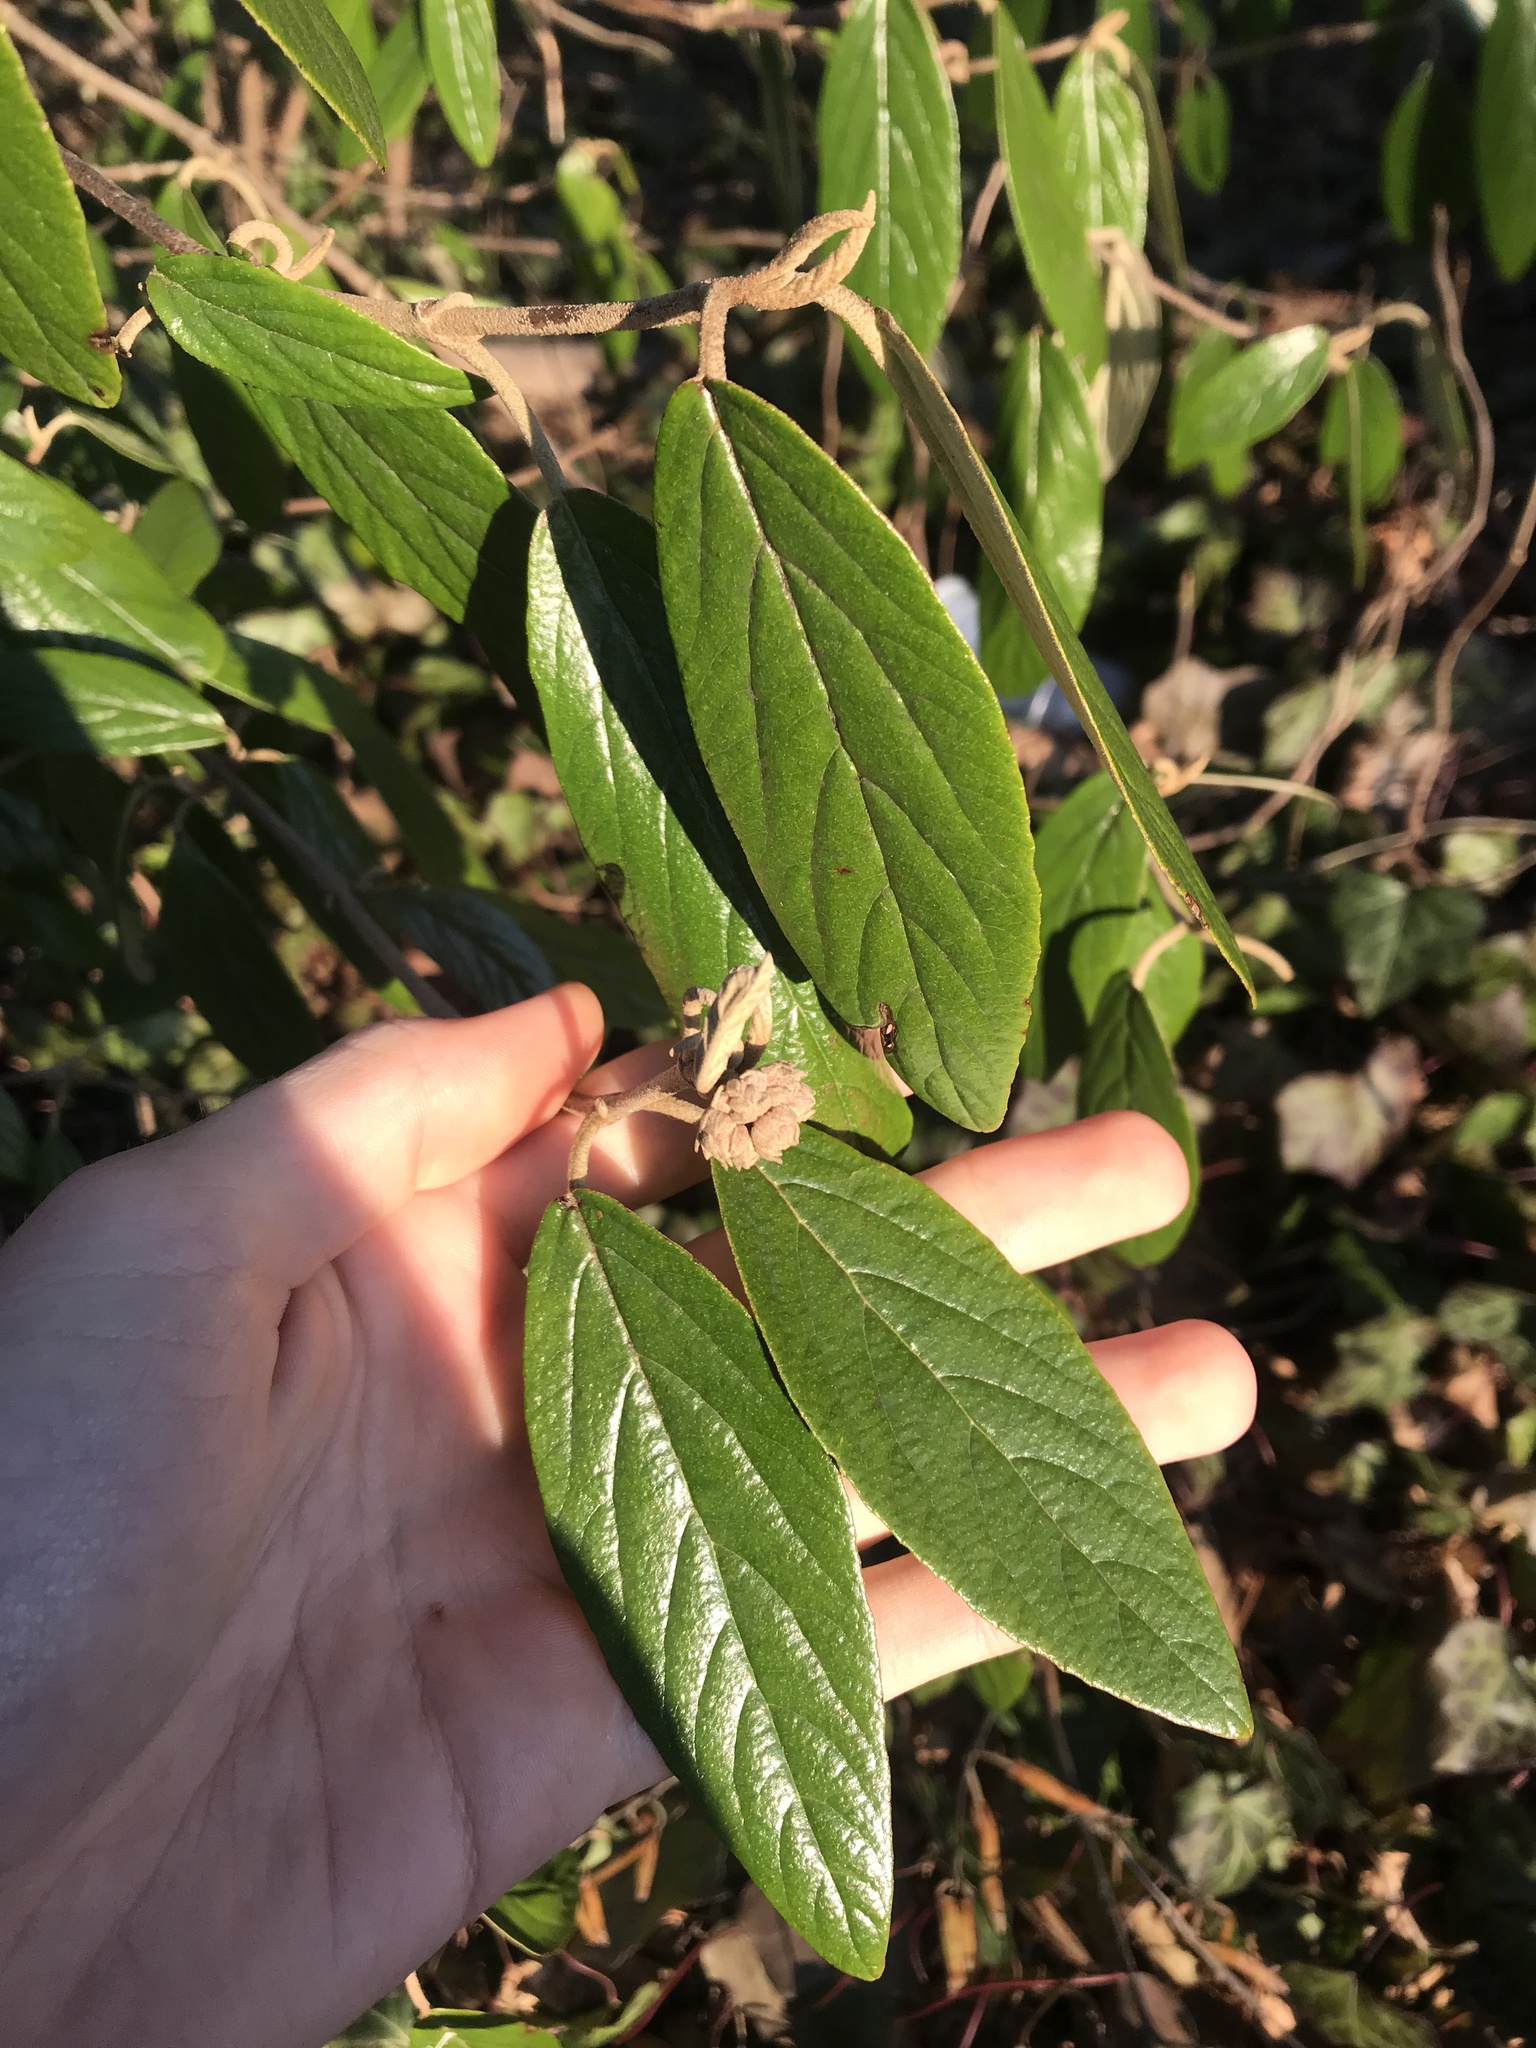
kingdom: Plantae
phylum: Tracheophyta
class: Magnoliopsida
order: Dipsacales
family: Viburnaceae
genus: Viburnum
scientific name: Viburnum rhytidophyllum
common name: Wrinkled viburnum
